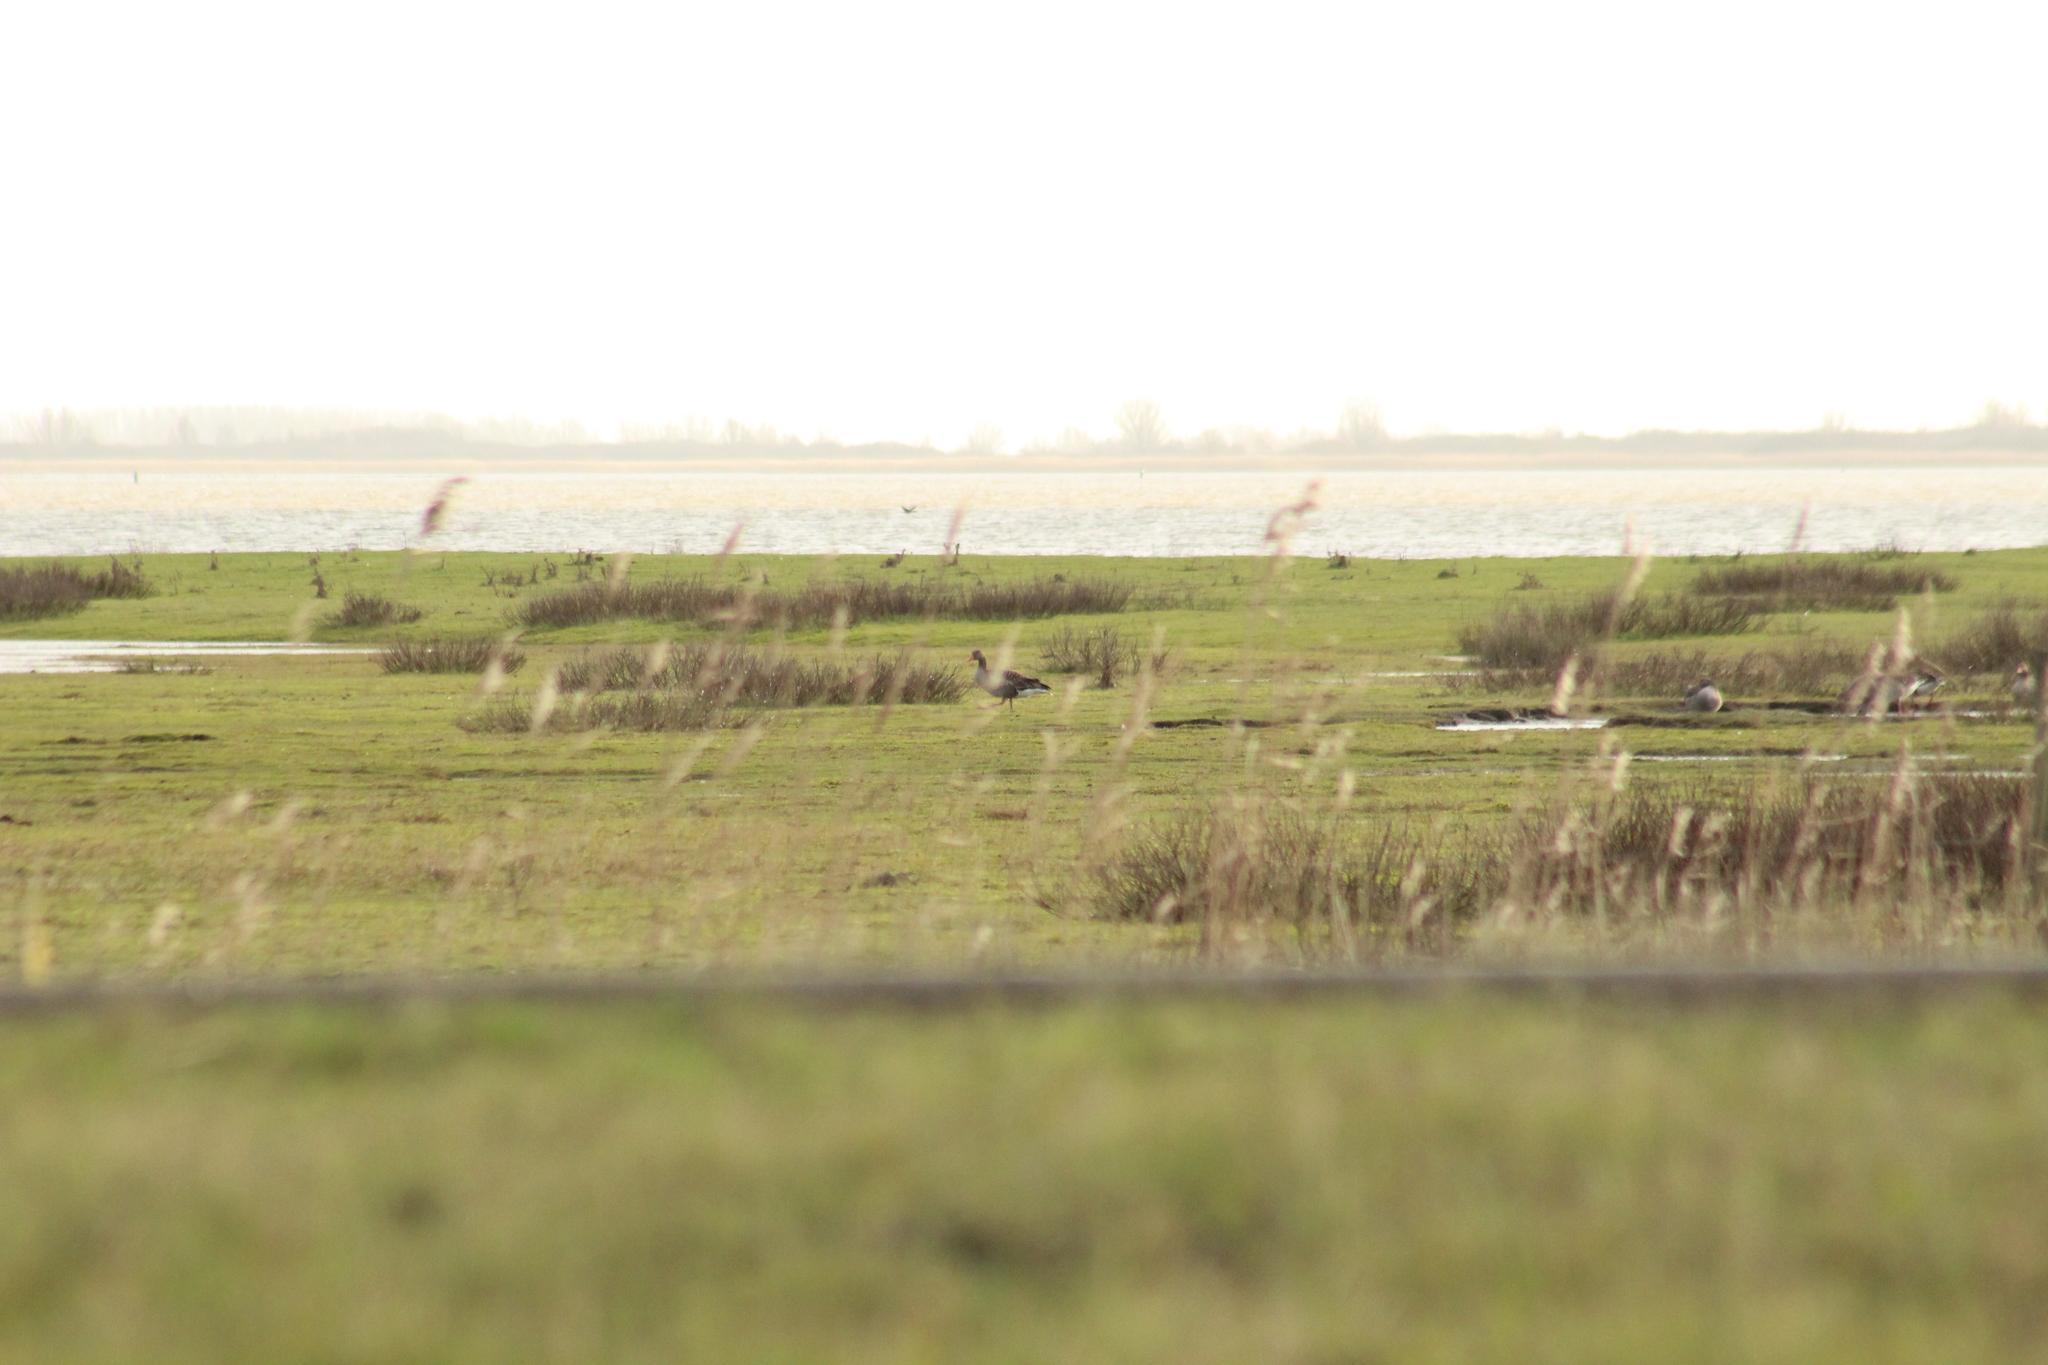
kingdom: Animalia
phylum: Chordata
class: Aves
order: Anseriformes
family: Anatidae
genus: Anser
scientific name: Anser anser
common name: Greylag goose
